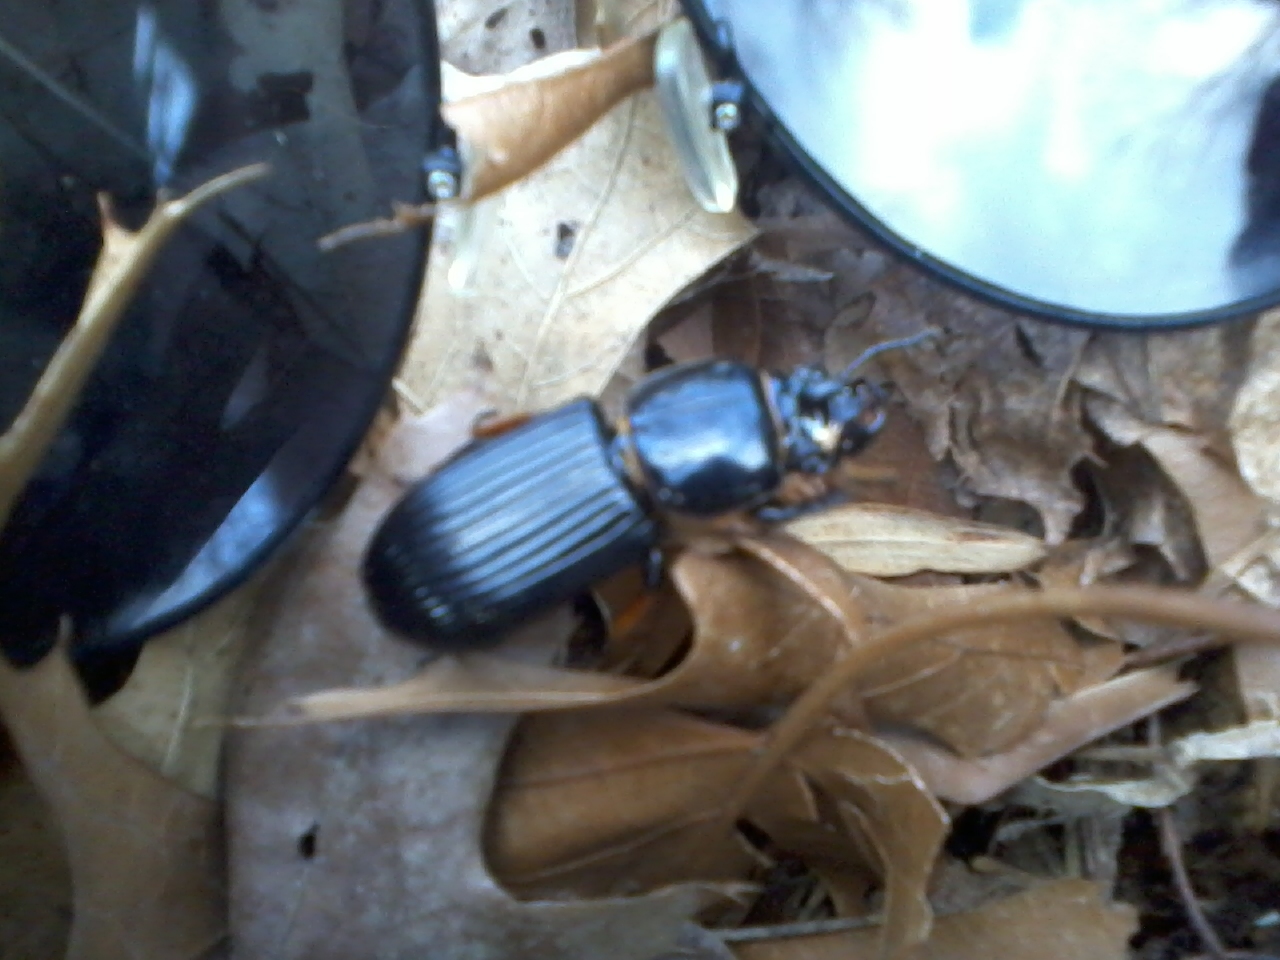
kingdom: Animalia
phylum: Arthropoda
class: Insecta
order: Coleoptera
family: Passalidae
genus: Odontotaenius
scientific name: Odontotaenius disjunctus
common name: Patent leather beetle
